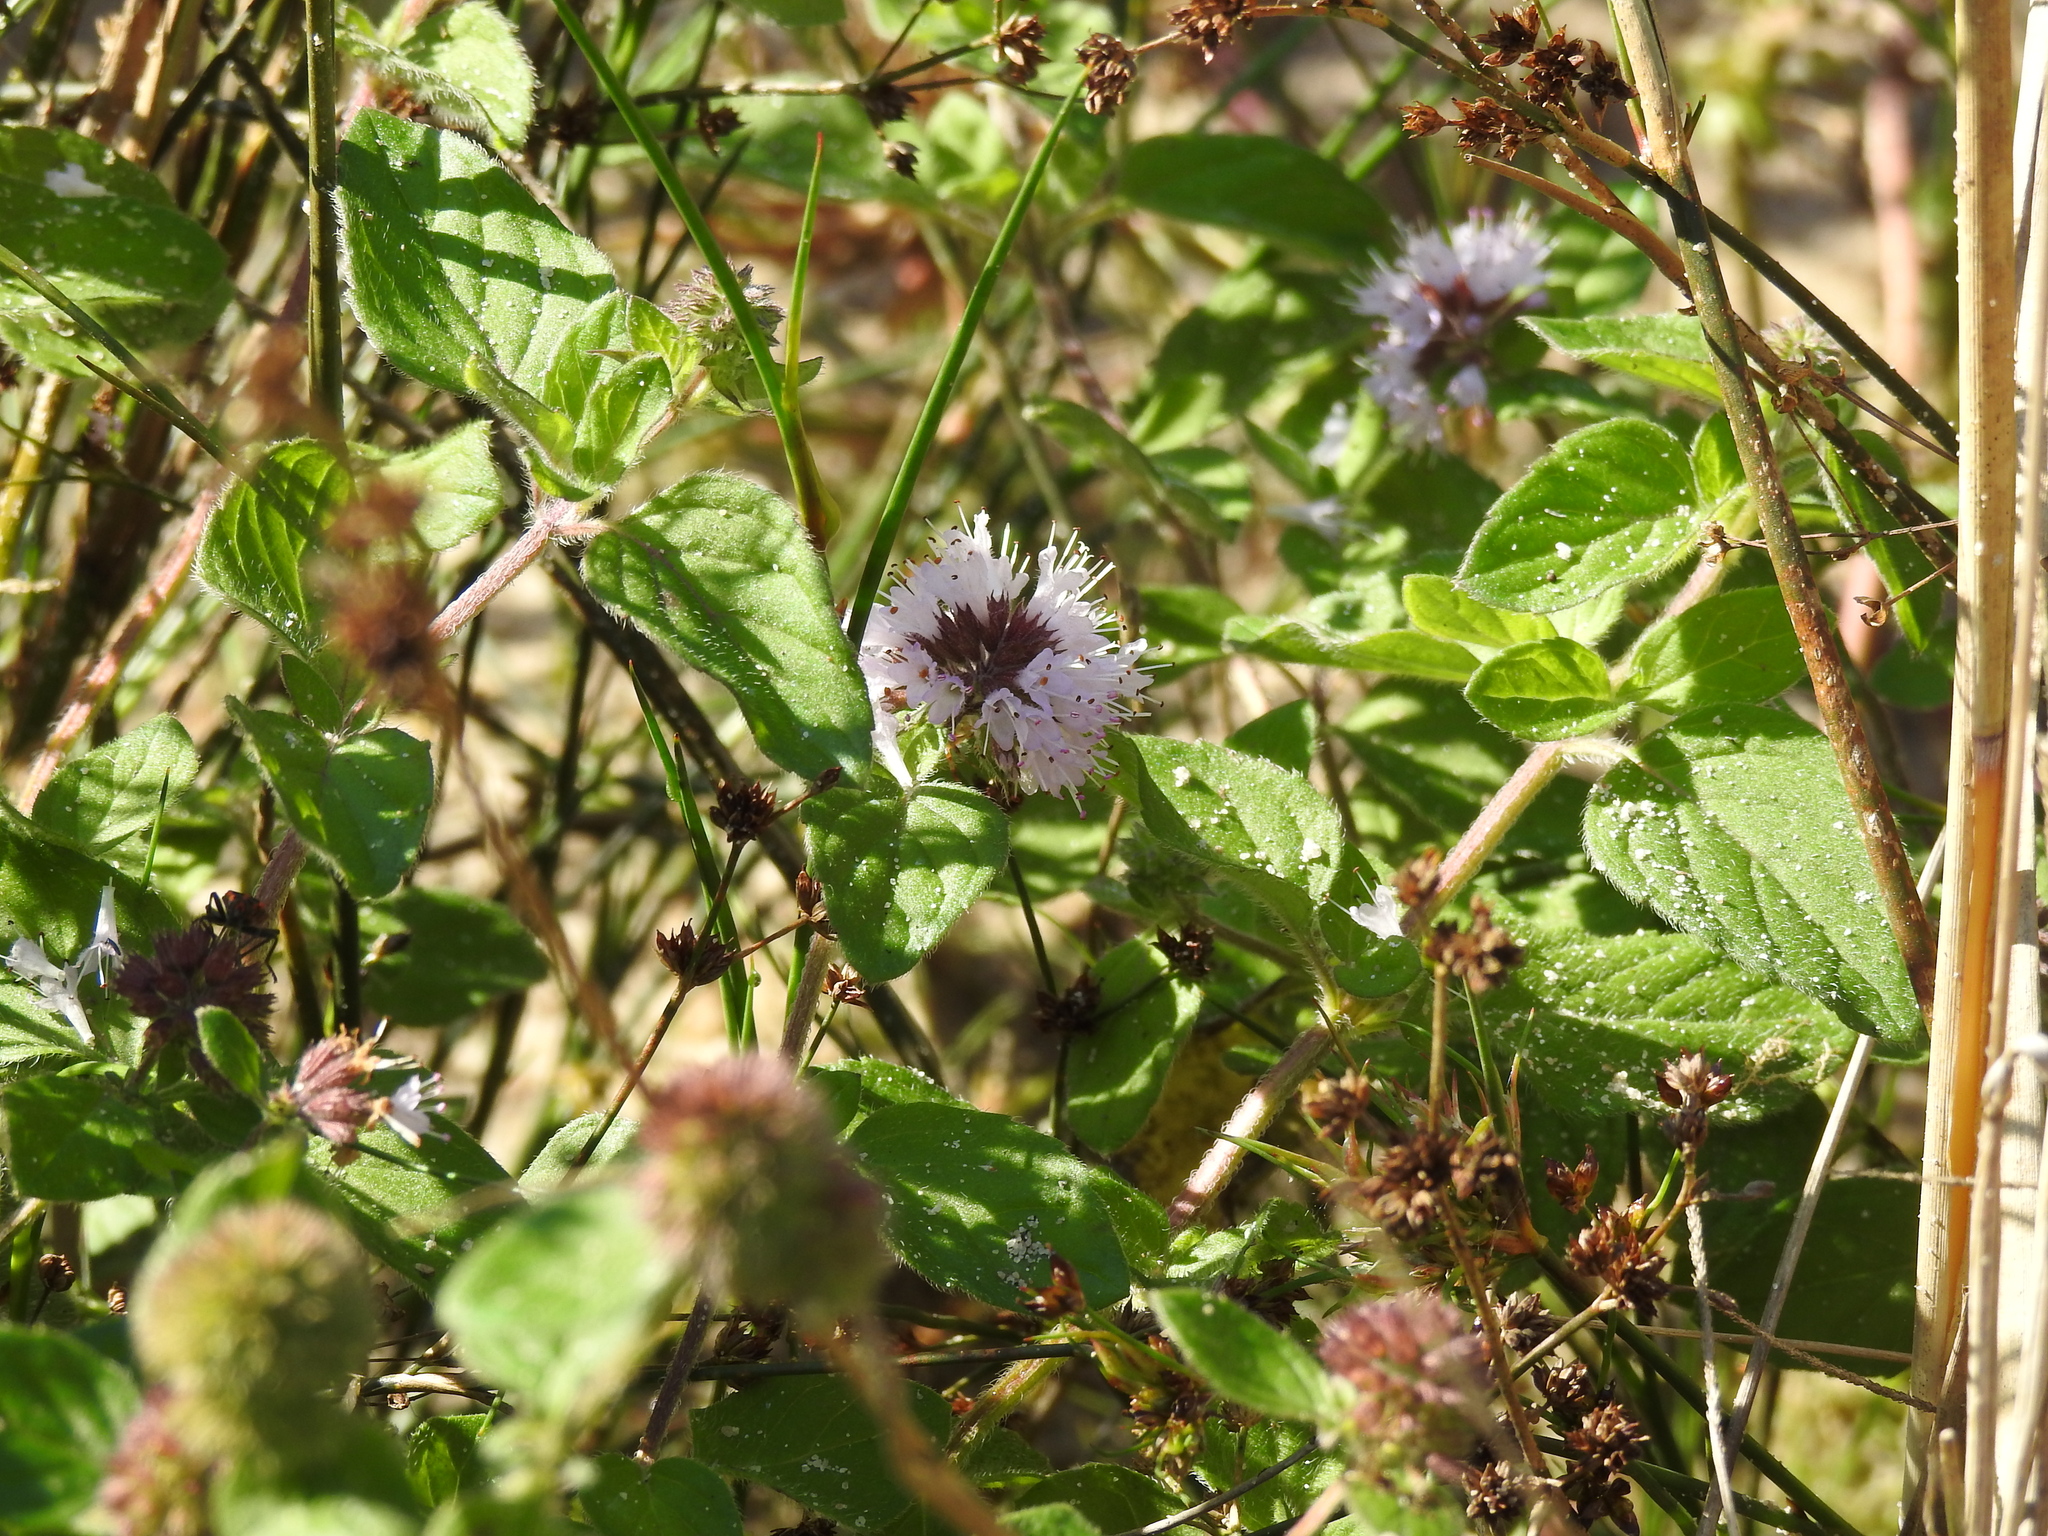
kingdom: Plantae
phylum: Tracheophyta
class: Magnoliopsida
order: Lamiales
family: Lamiaceae
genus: Mentha
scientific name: Mentha aquatica
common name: Water mint
